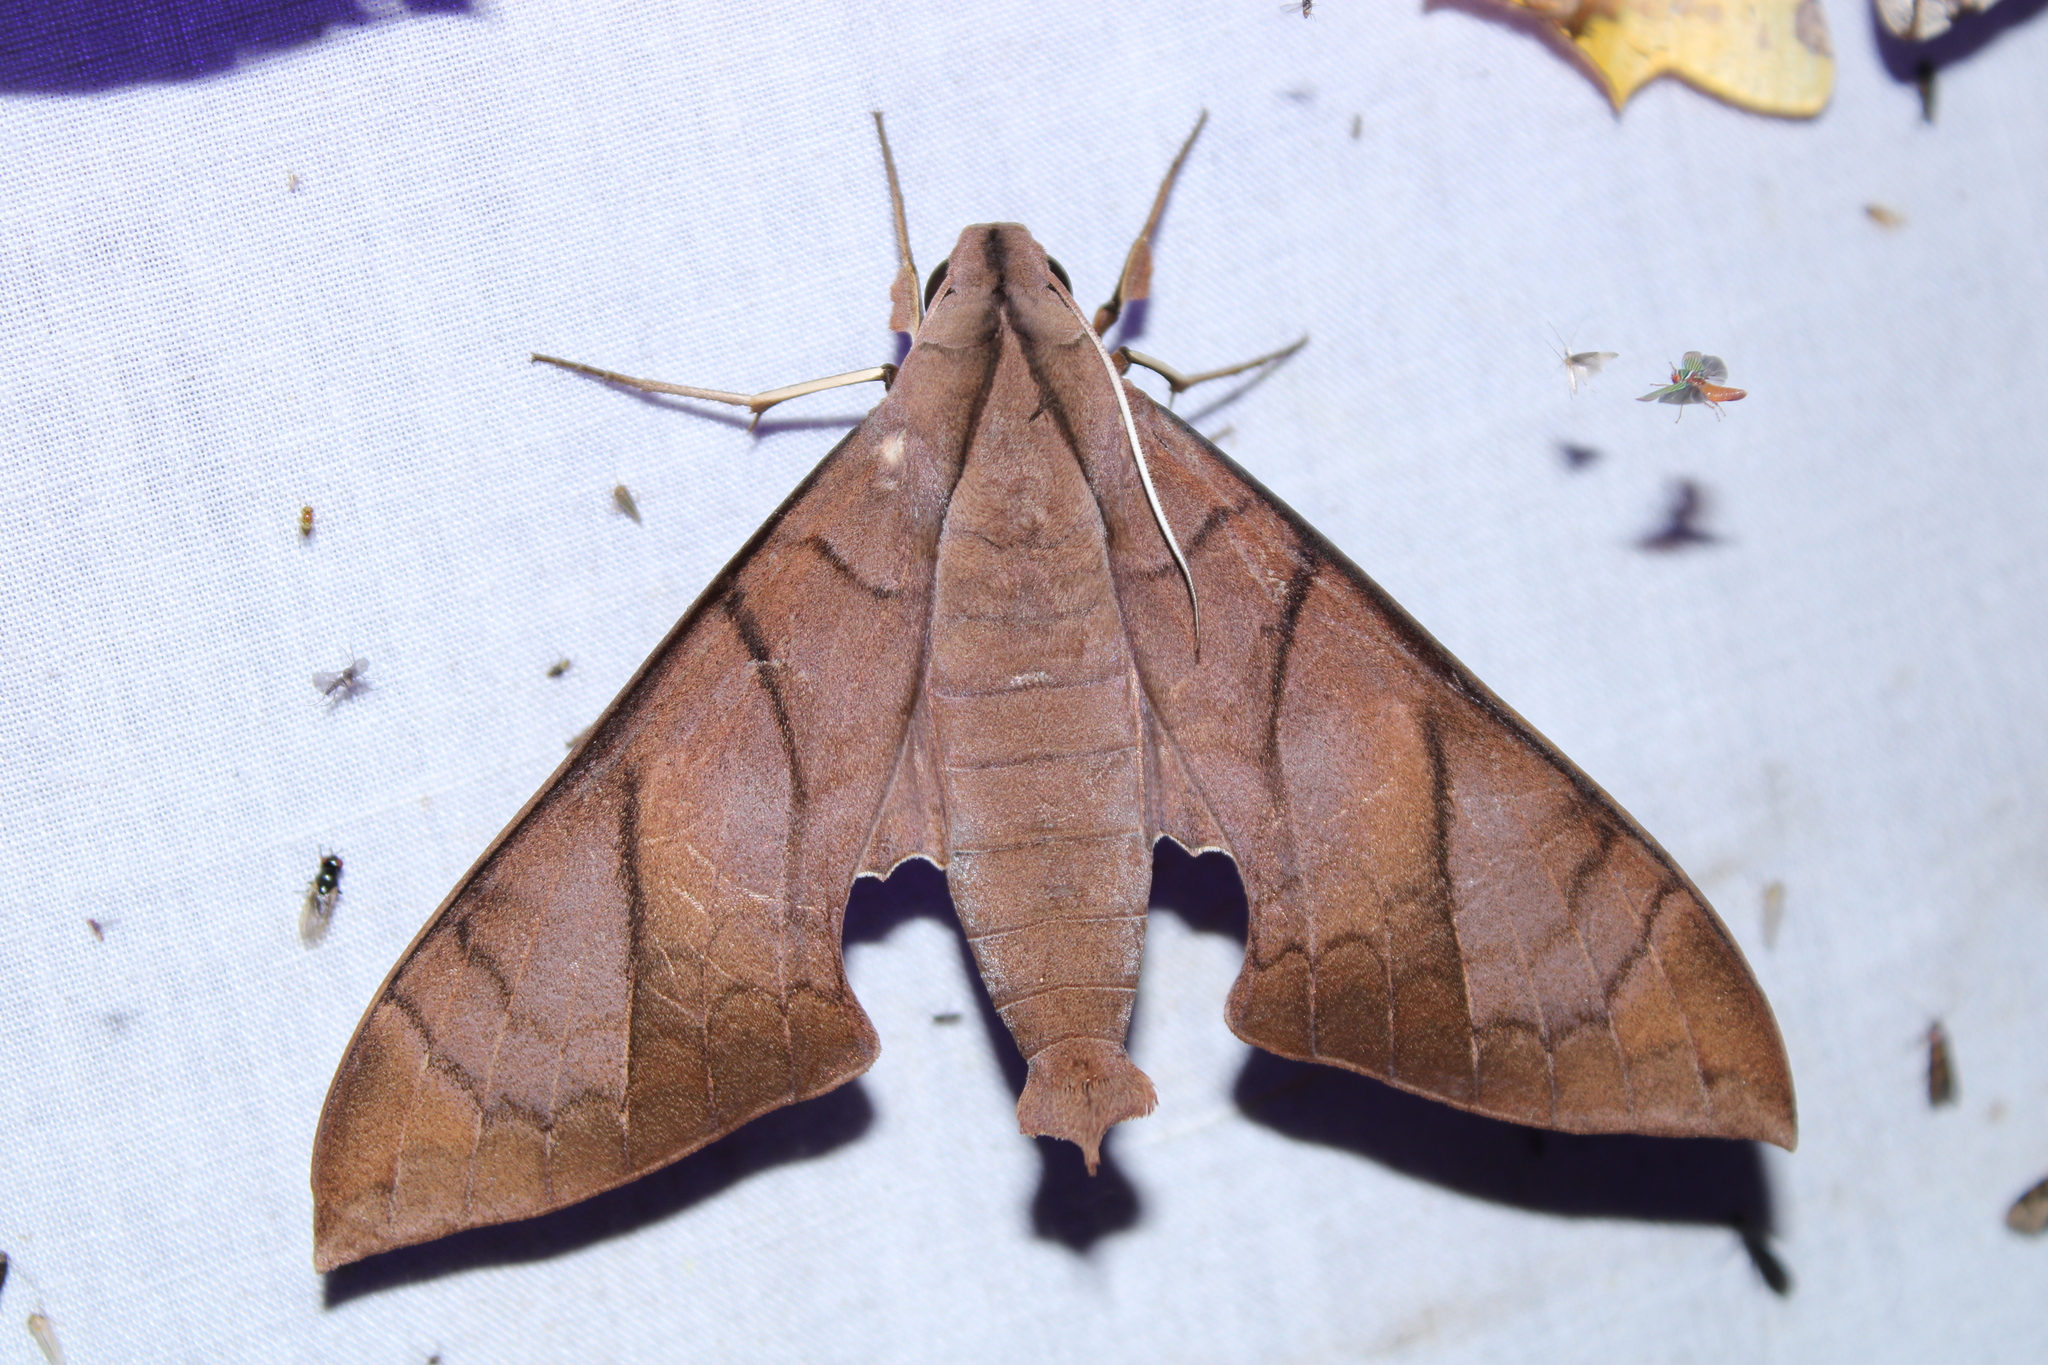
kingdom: Animalia
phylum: Arthropoda
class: Insecta
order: Lepidoptera
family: Sphingidae
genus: Pachylia
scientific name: Pachylia darceta
